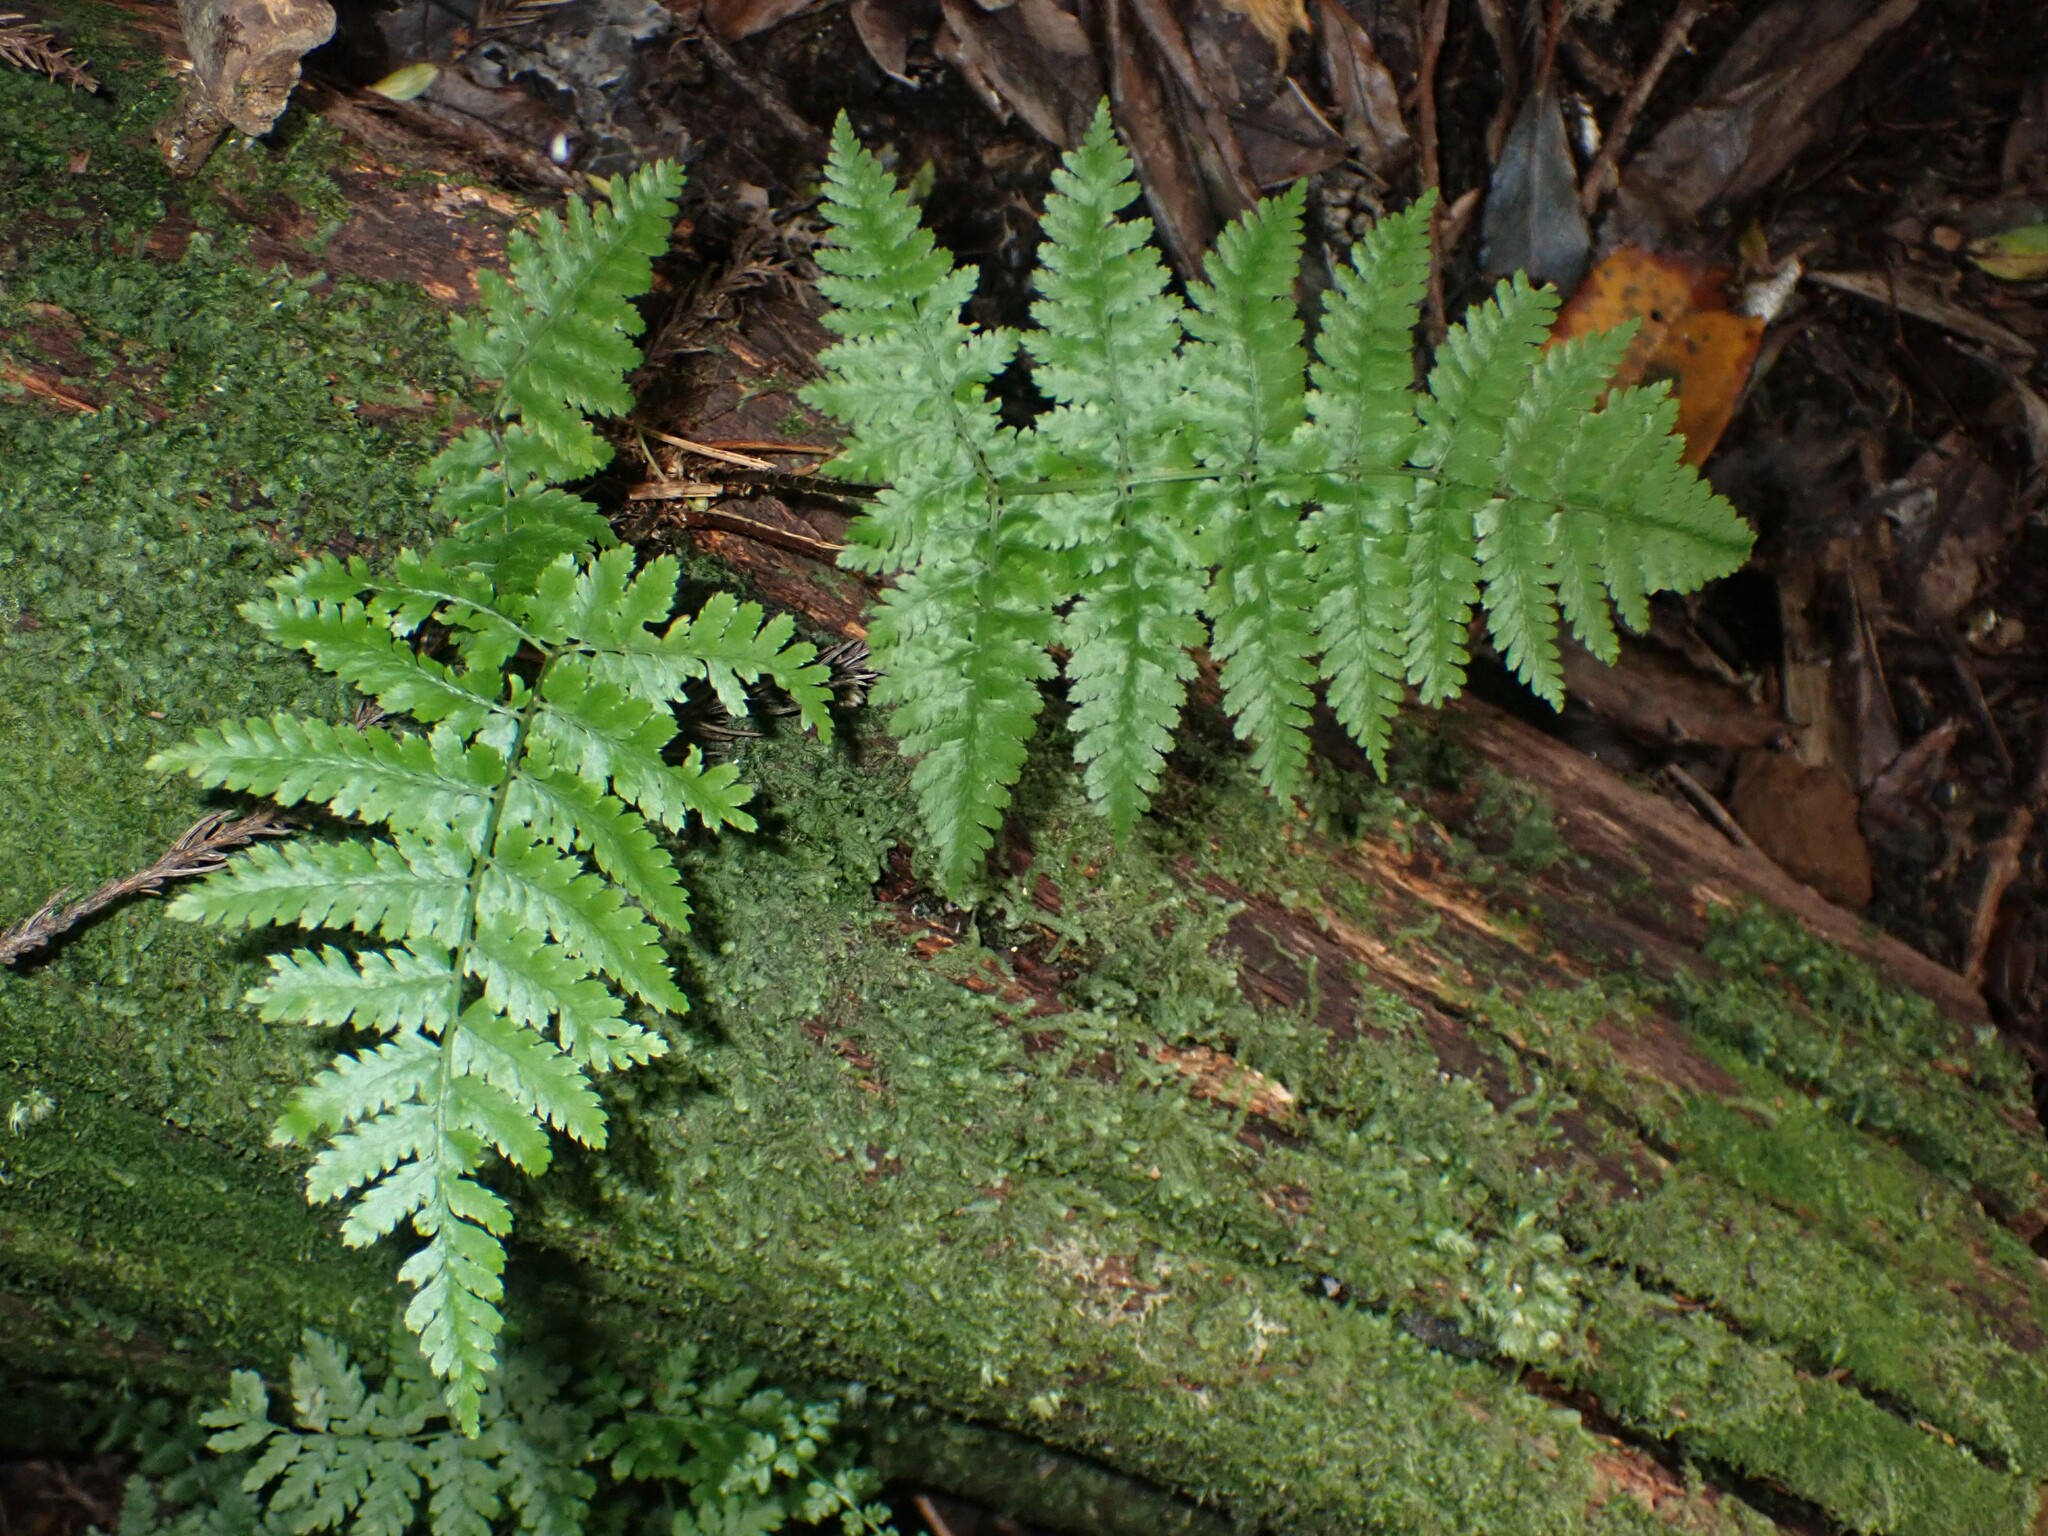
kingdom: Plantae
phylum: Tracheophyta
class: Polypodiopsida
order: Polypodiales
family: Dryopteridaceae
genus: Dryopteris
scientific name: Dryopteris intermedia
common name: Evergreen wood fern
